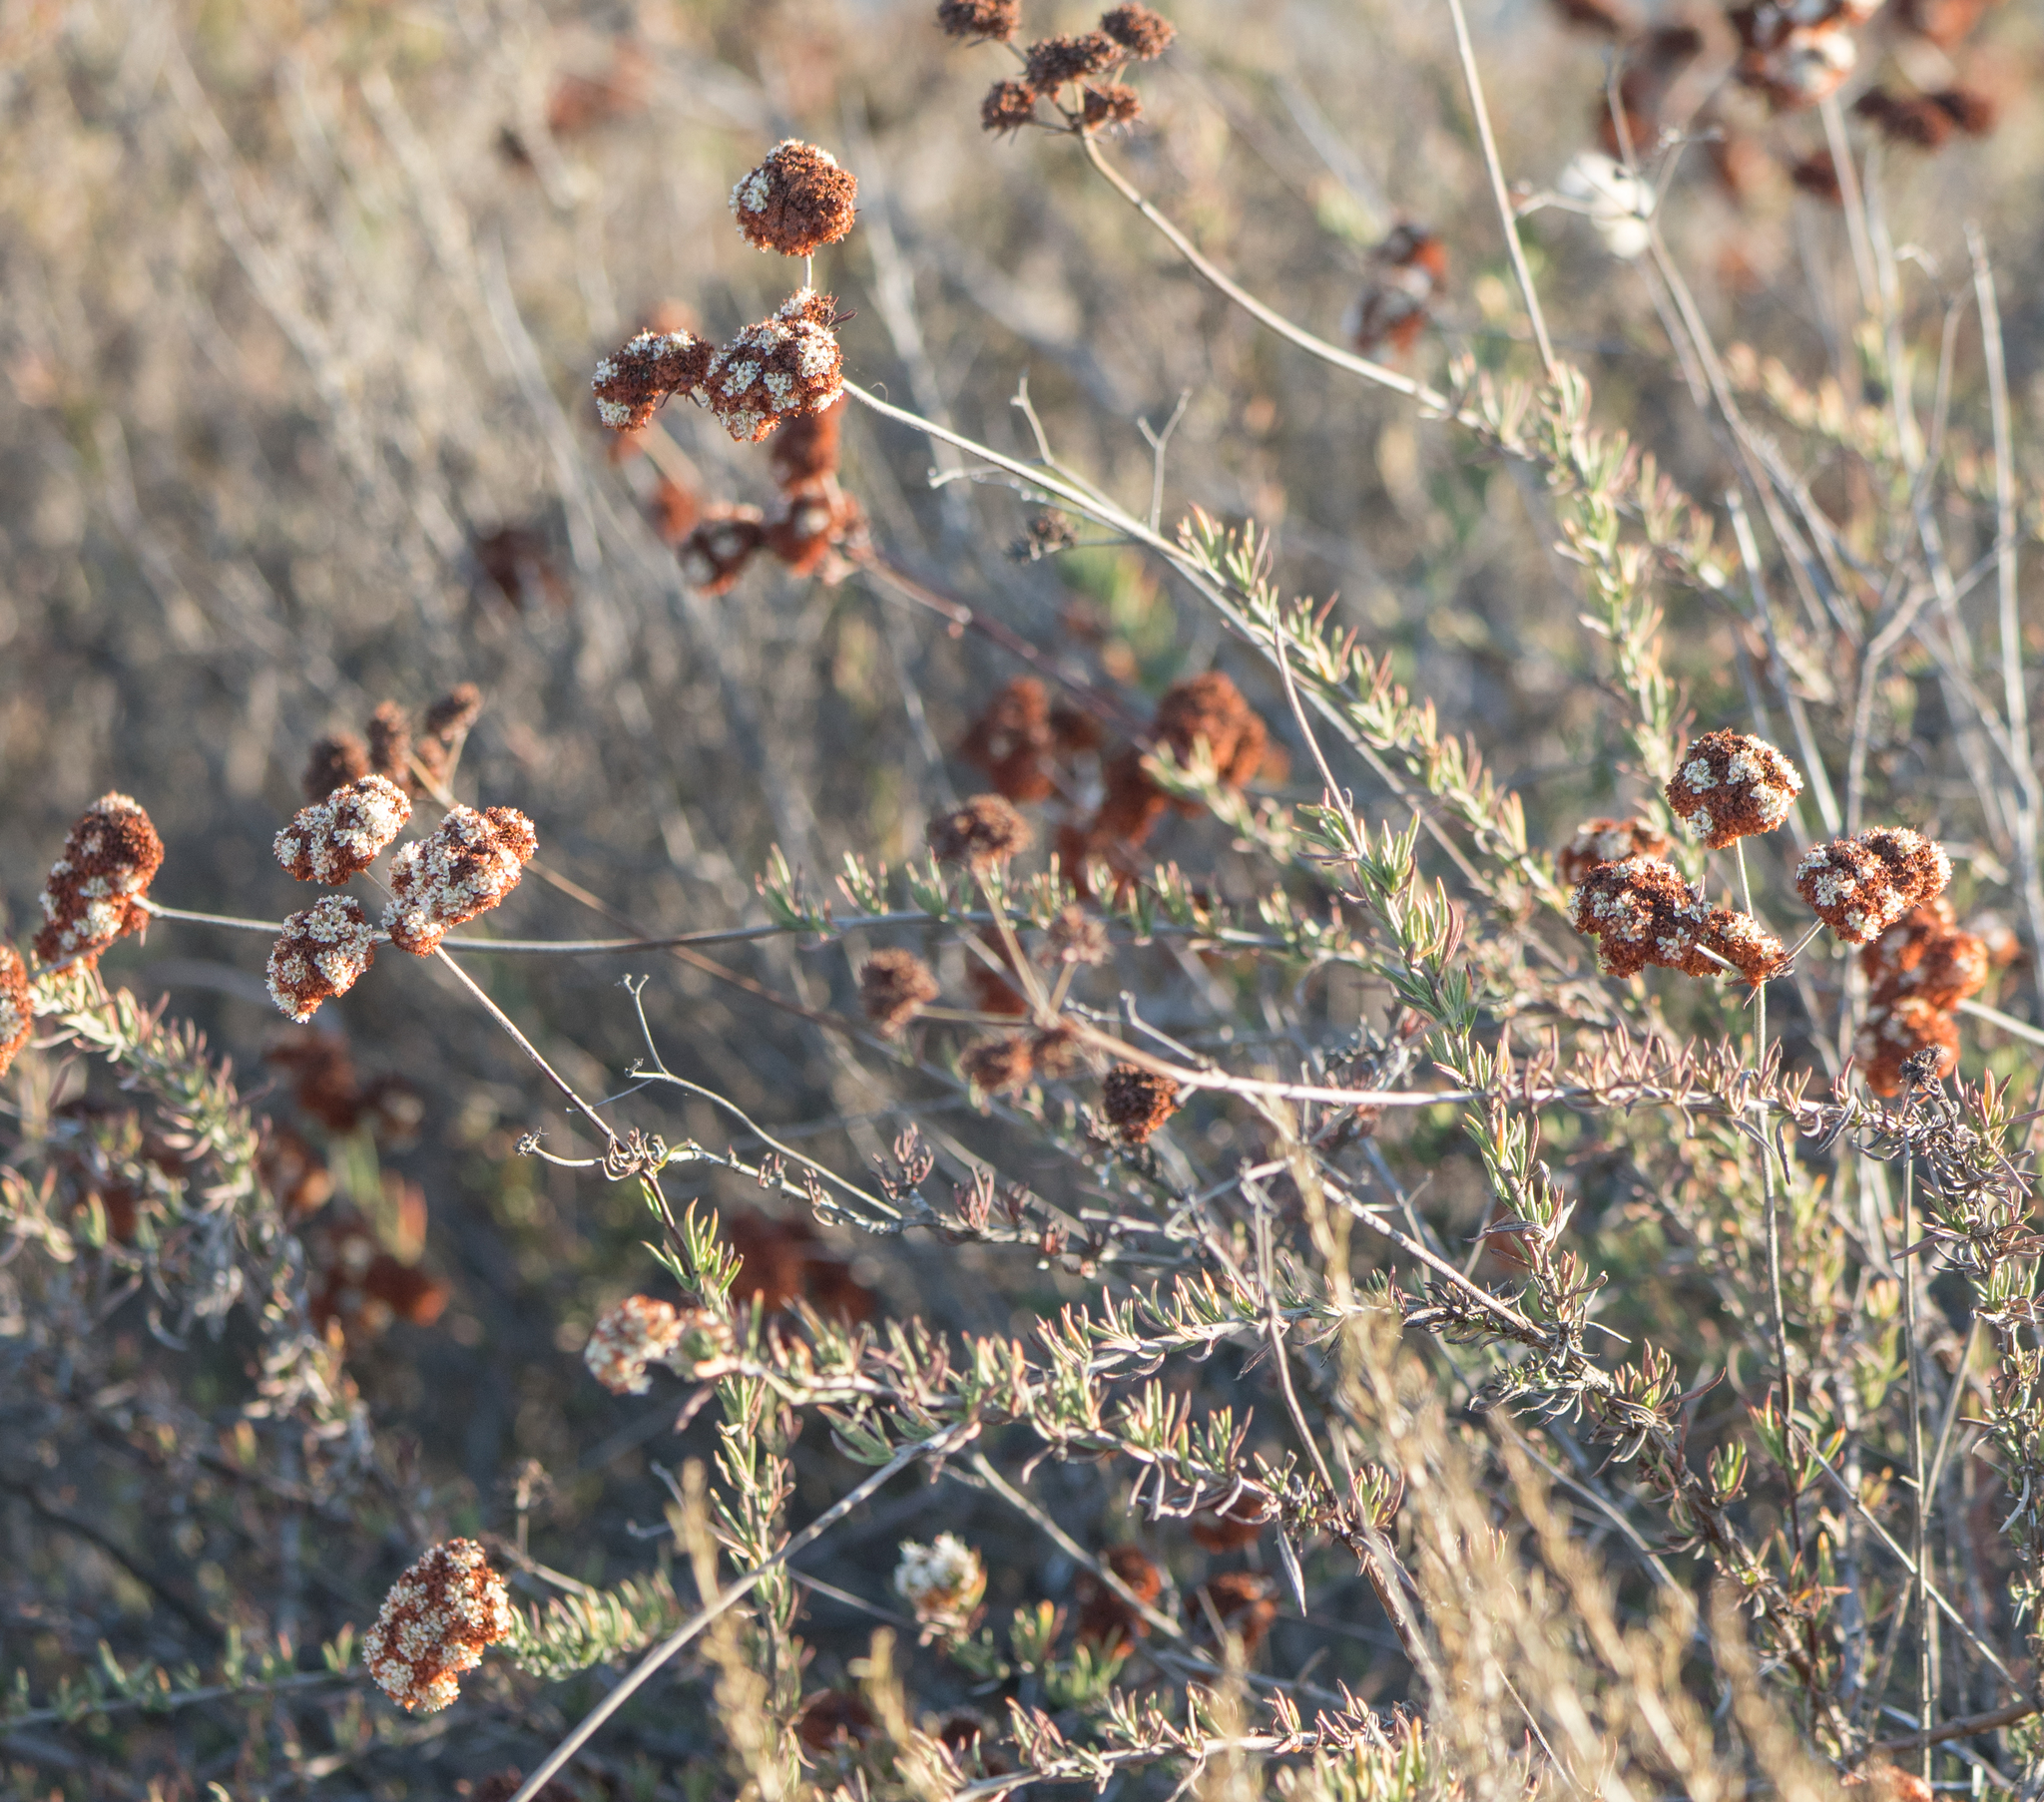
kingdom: Plantae
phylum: Tracheophyta
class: Magnoliopsida
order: Caryophyllales
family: Polygonaceae
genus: Eriogonum
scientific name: Eriogonum fasciculatum
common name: California wild buckwheat
